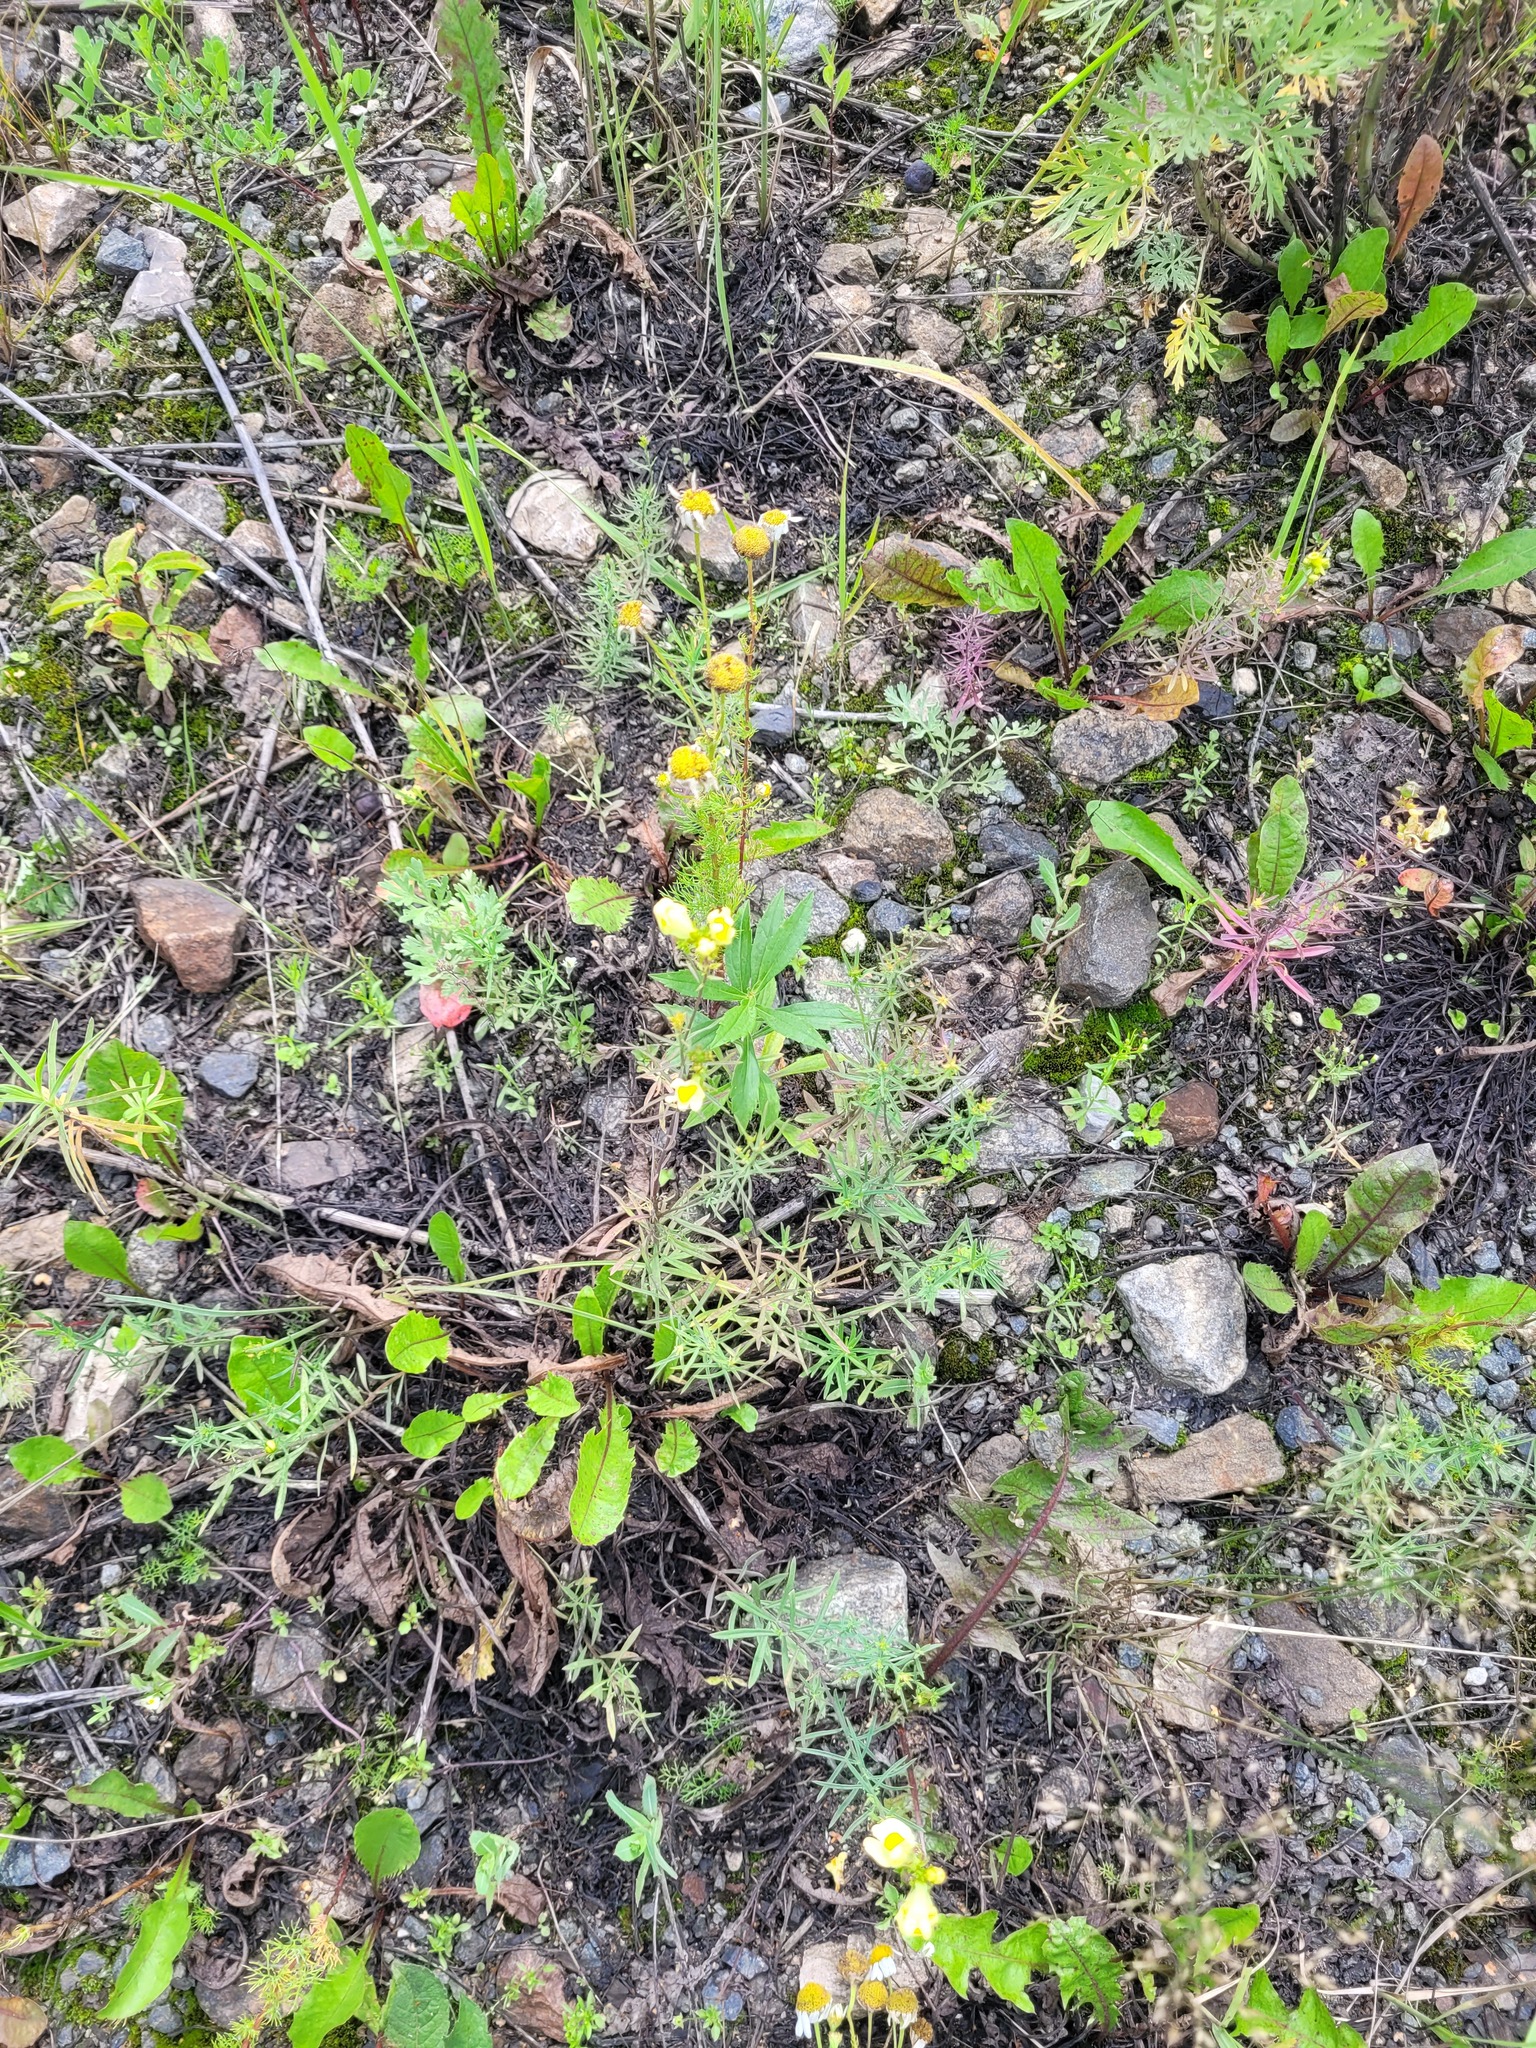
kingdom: Plantae
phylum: Tracheophyta
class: Magnoliopsida
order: Lamiales
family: Plantaginaceae
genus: Linaria
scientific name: Linaria vulgaris
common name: Butter and eggs
